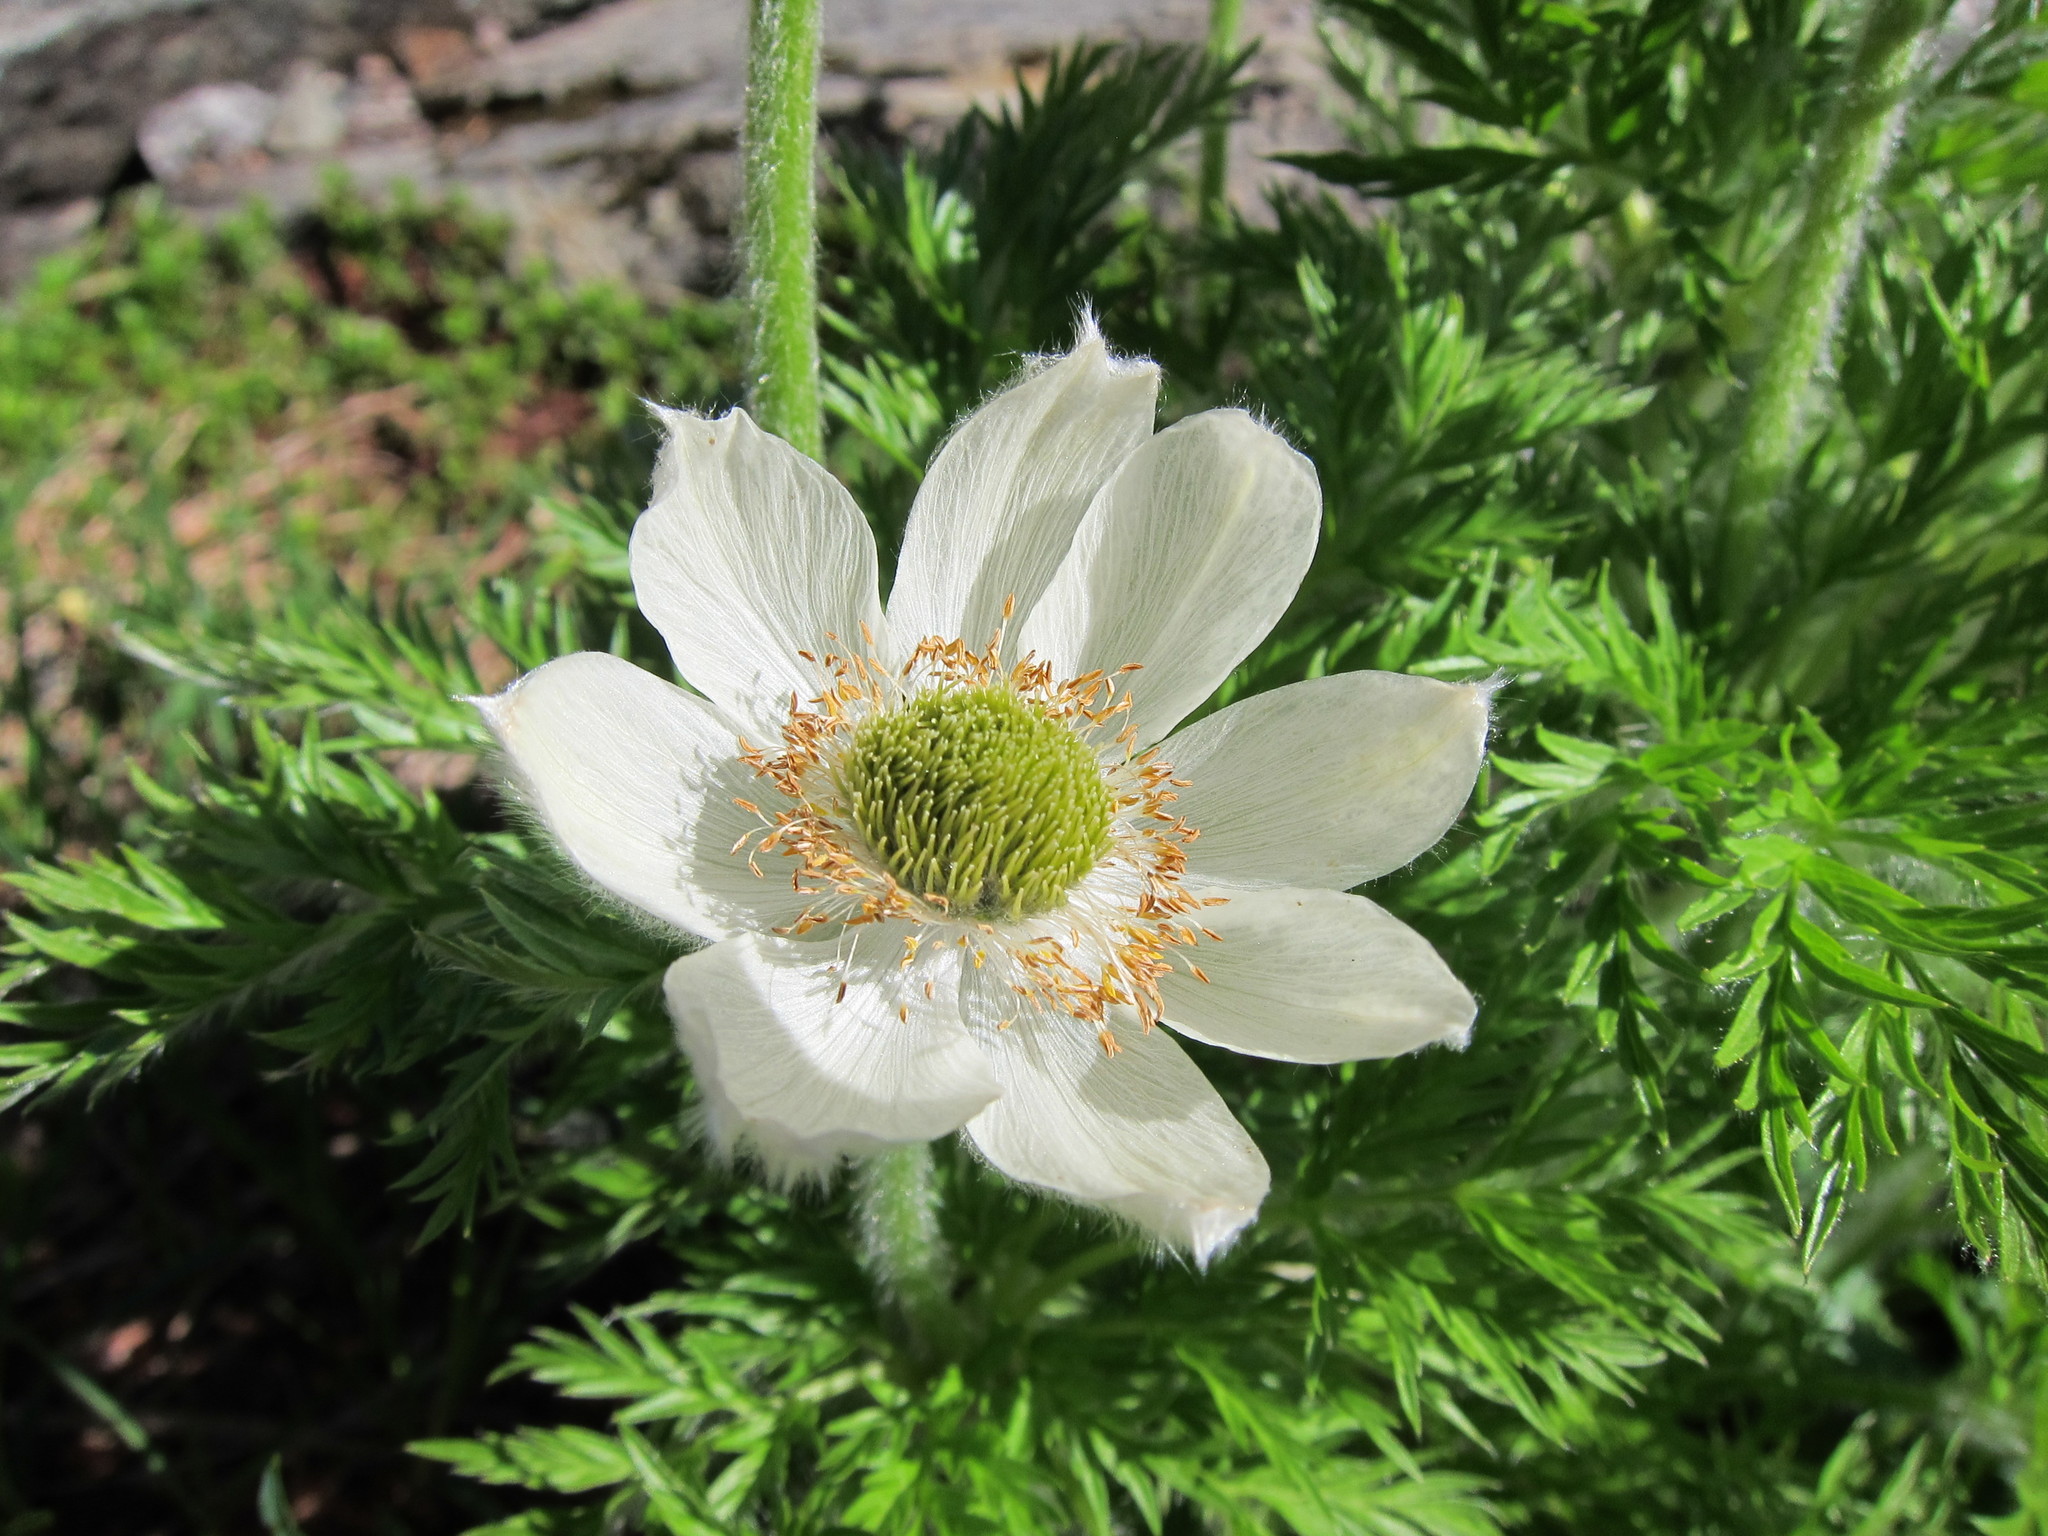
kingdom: Plantae
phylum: Tracheophyta
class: Magnoliopsida
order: Ranunculales
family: Ranunculaceae
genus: Pulsatilla
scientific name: Pulsatilla occidentalis
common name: Mountain pasqueflower
